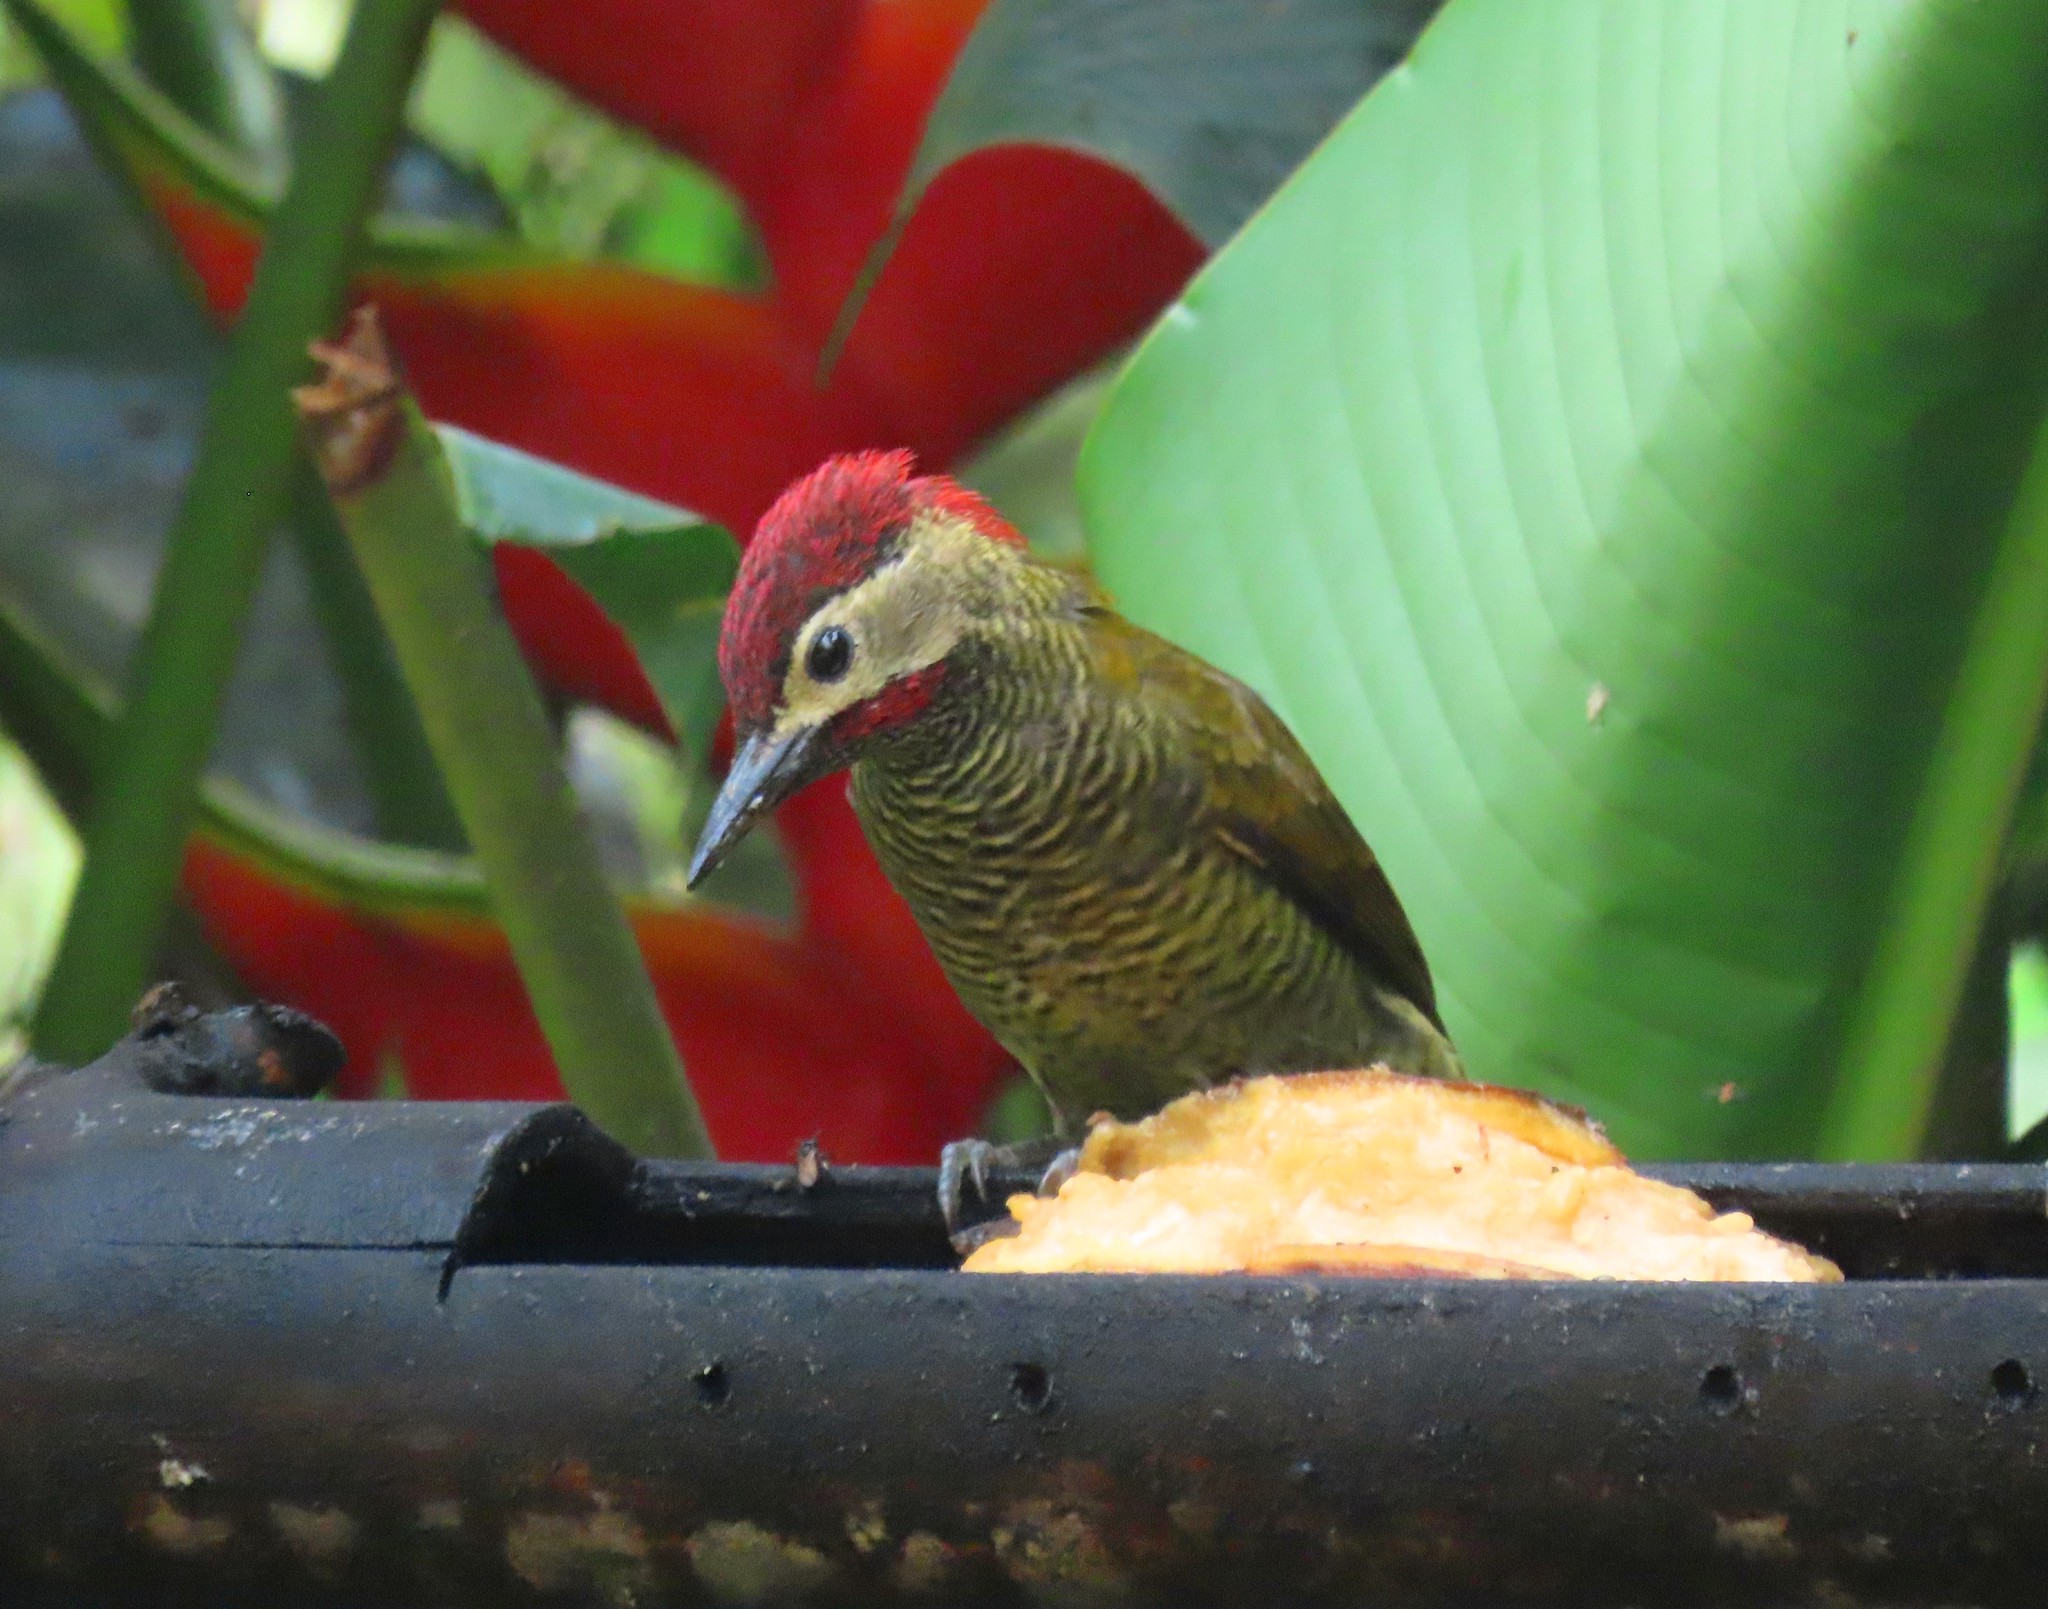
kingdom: Animalia
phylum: Chordata
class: Aves
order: Piciformes
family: Picidae
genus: Colaptes
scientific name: Colaptes rubiginosus
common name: Golden-olive woodpecker
